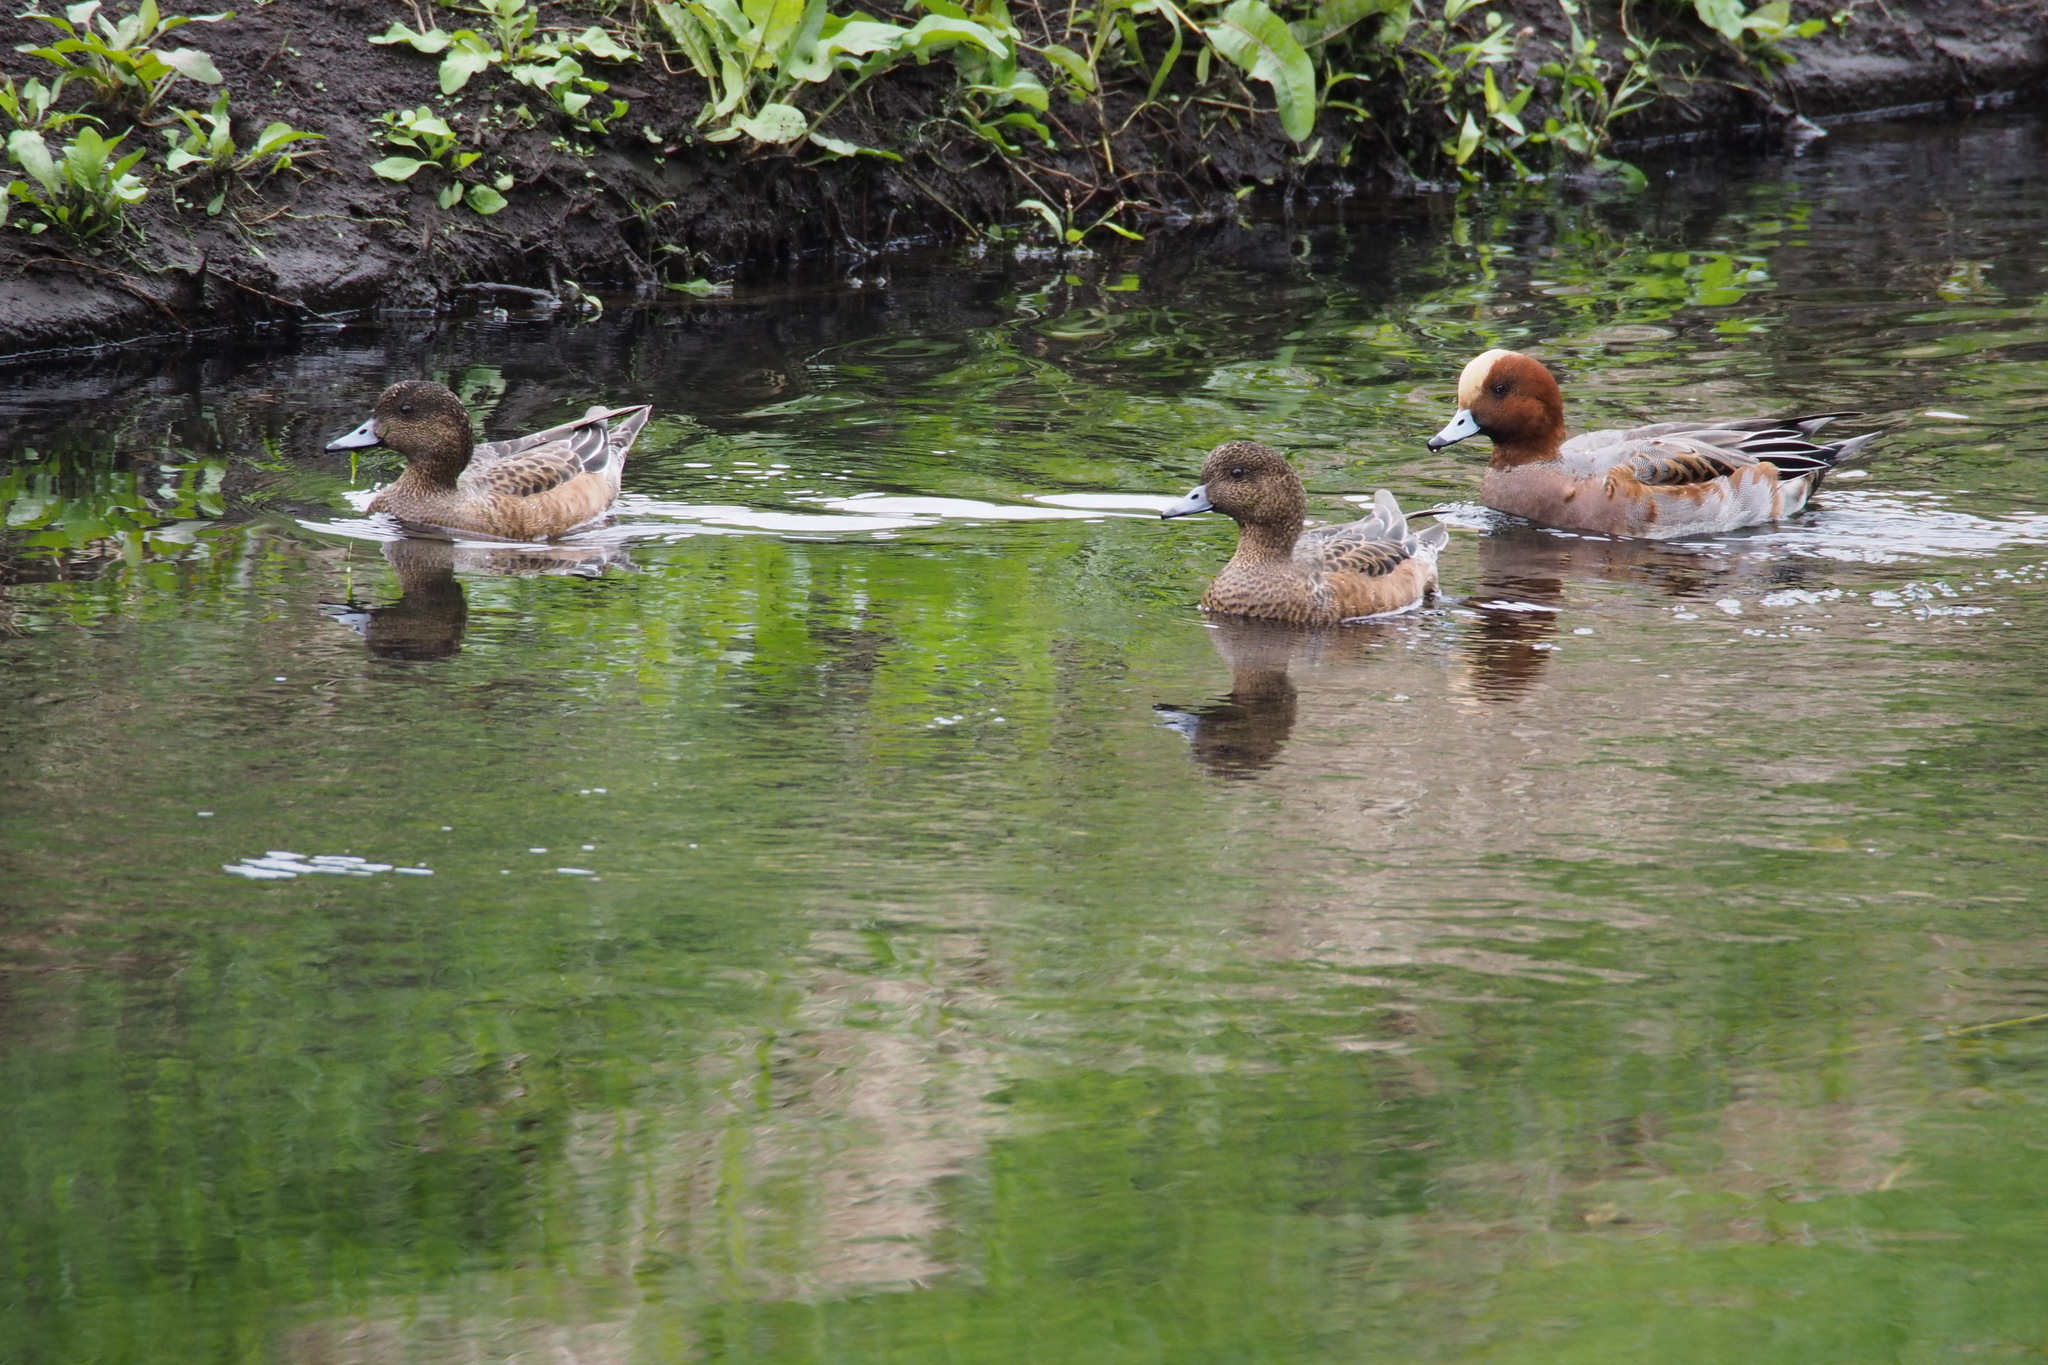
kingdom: Animalia
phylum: Chordata
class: Aves
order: Anseriformes
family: Anatidae
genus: Mareca
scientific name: Mareca penelope
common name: Eurasian wigeon
